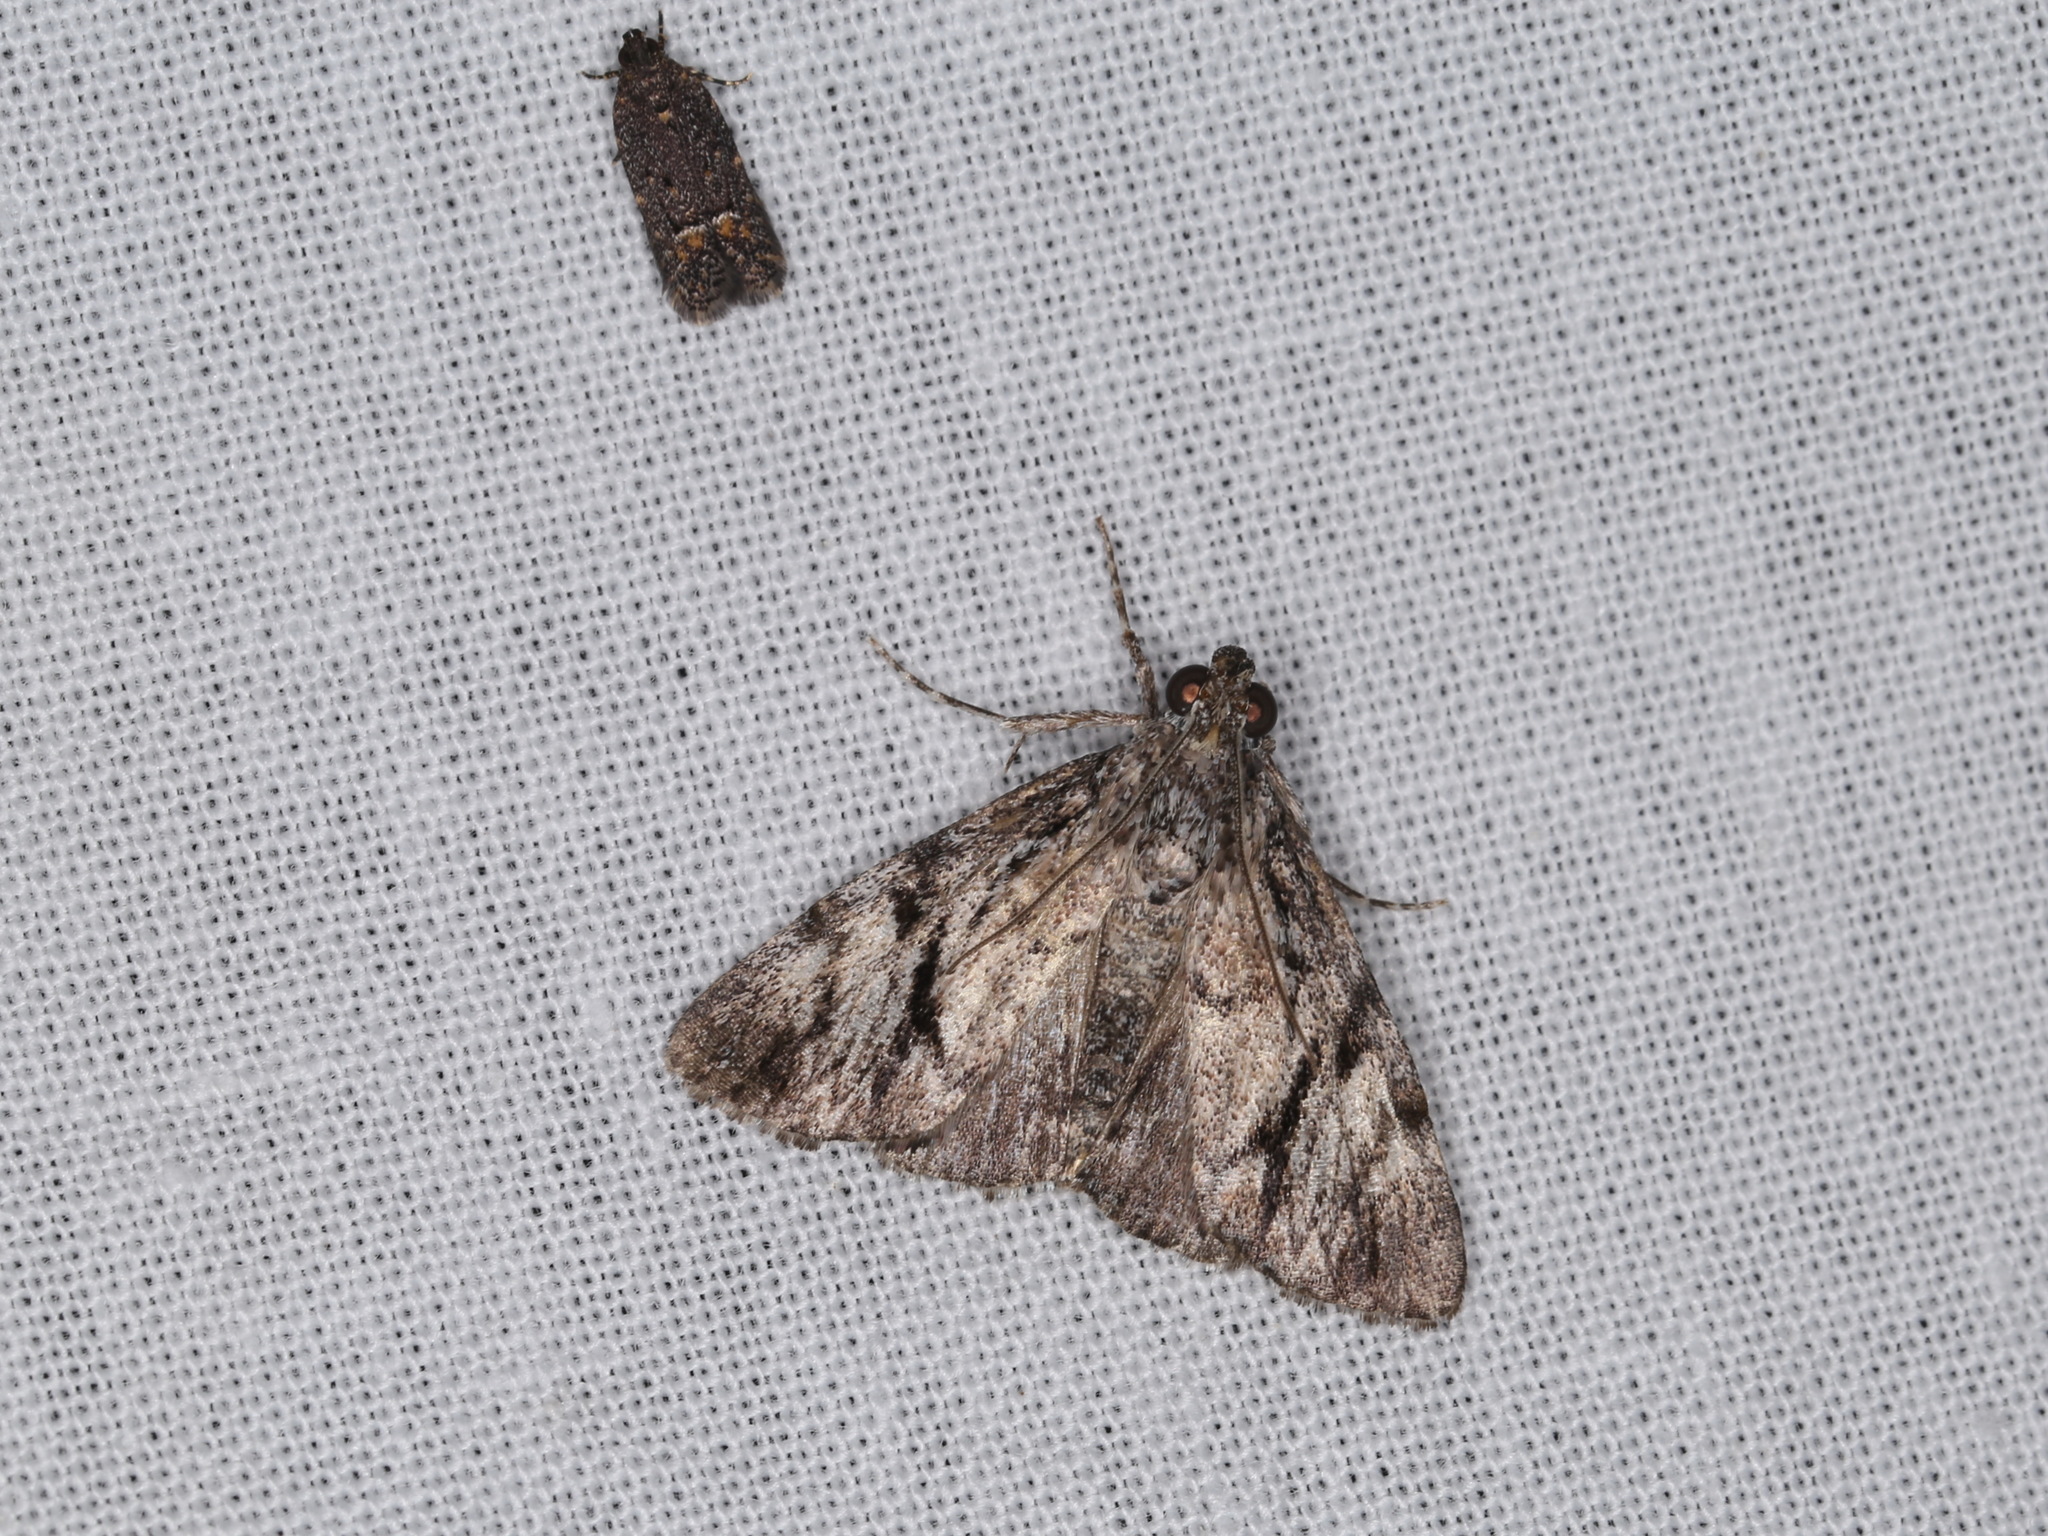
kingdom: Animalia
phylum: Arthropoda
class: Insecta
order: Lepidoptera
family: Pyralidae
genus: Salma
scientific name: Salma cholica
